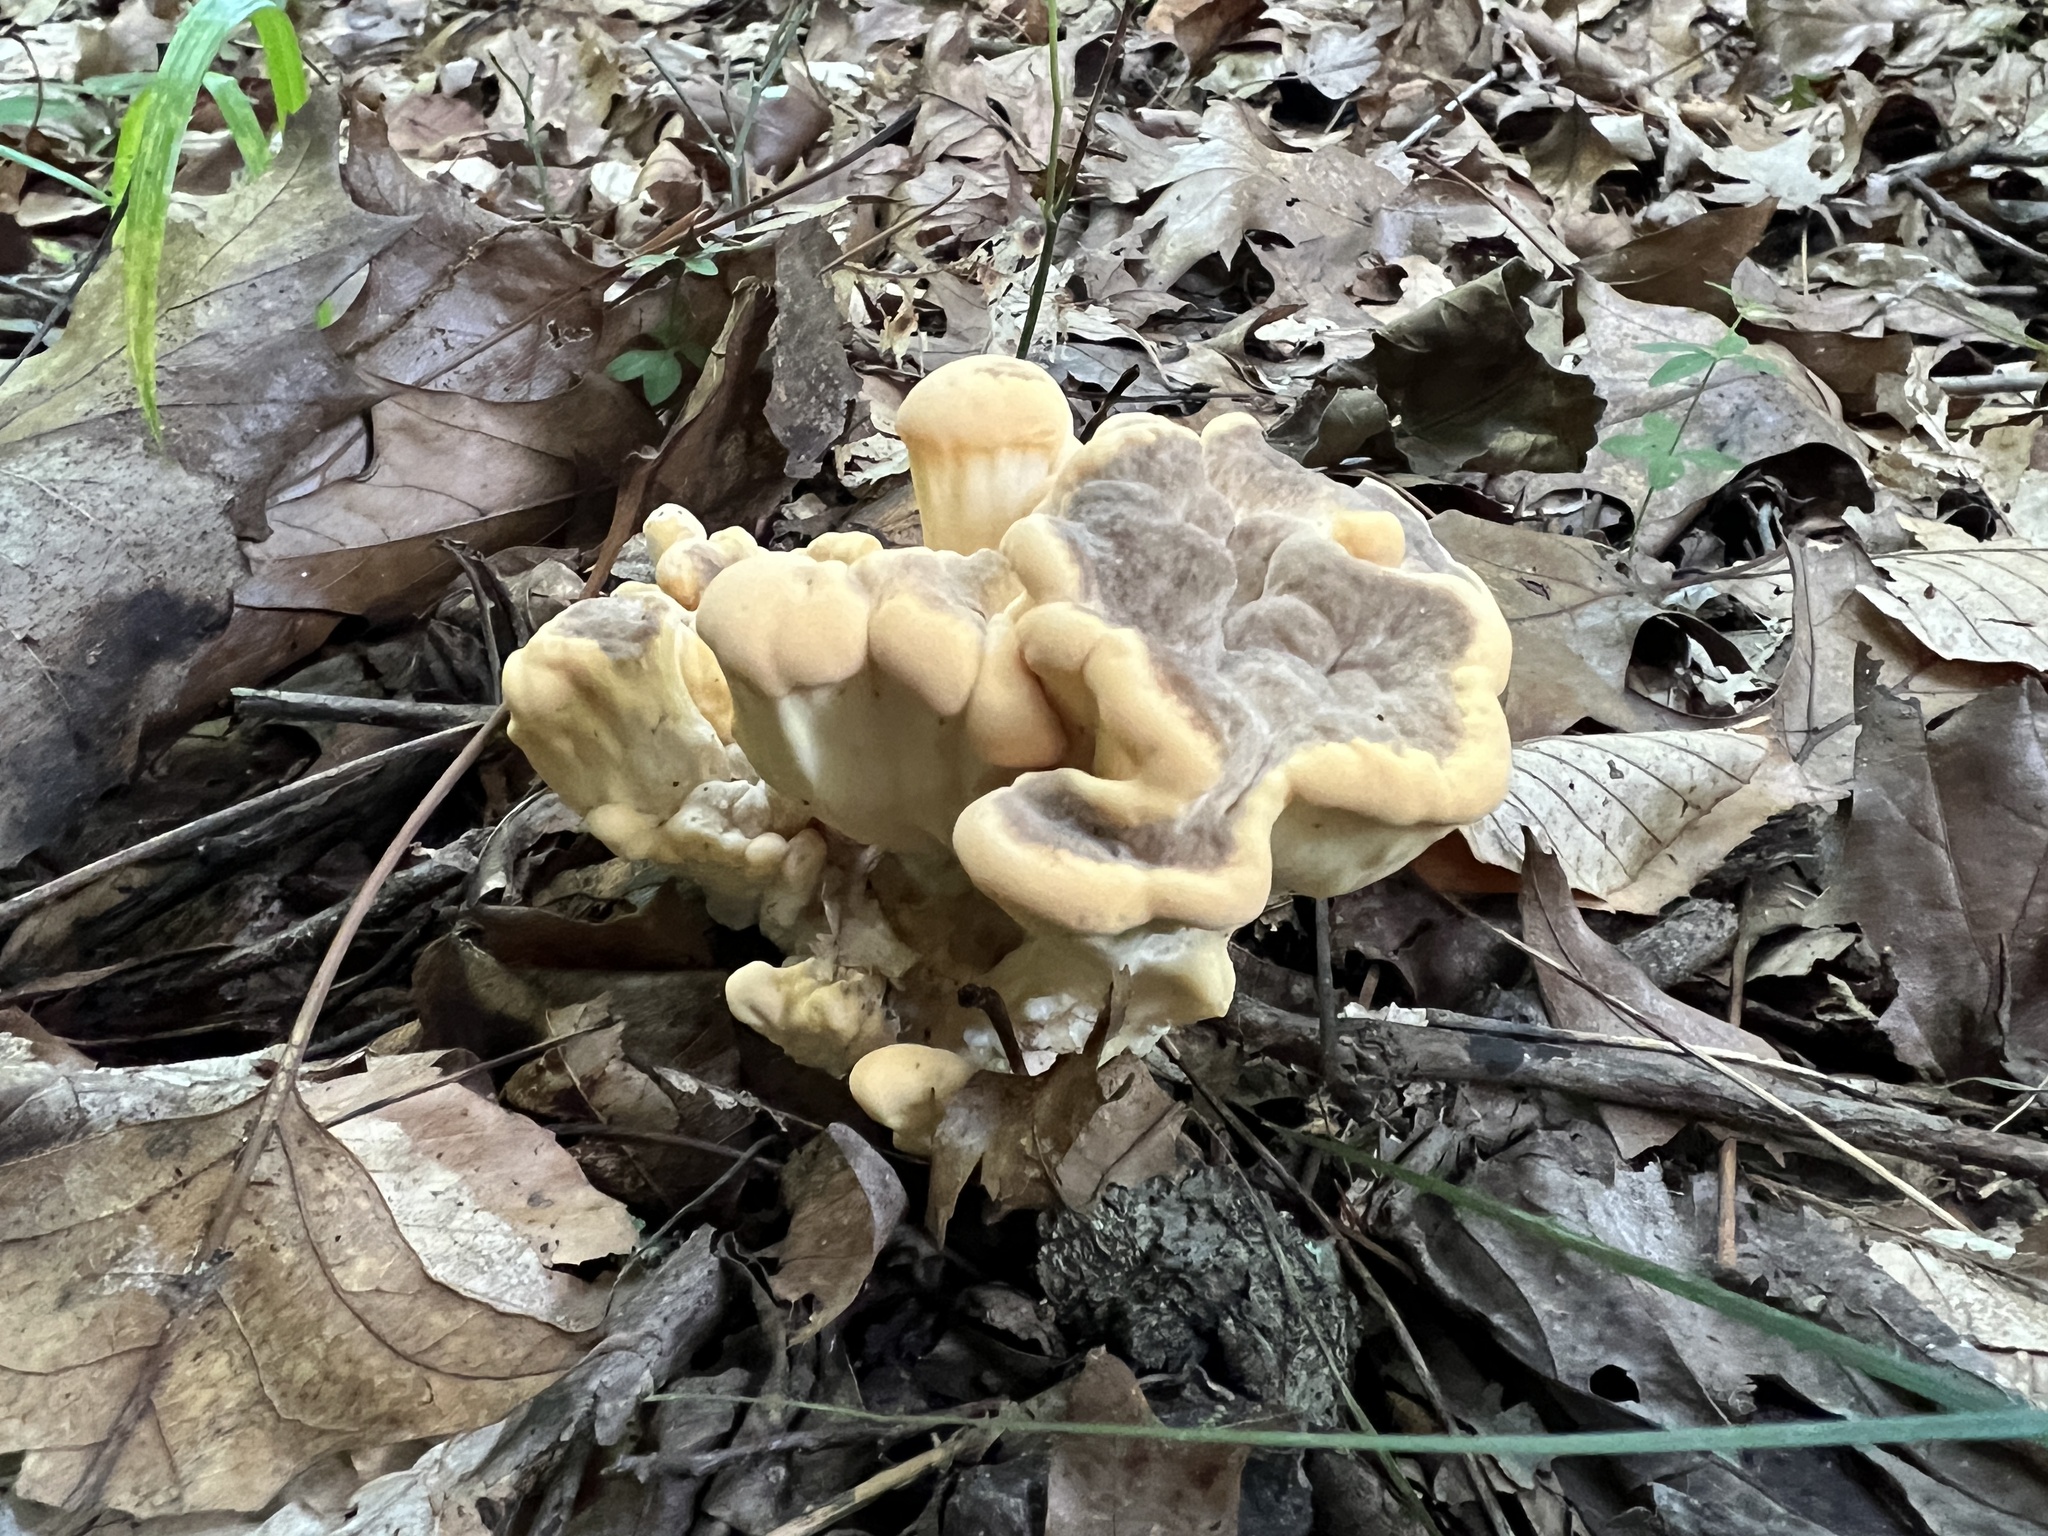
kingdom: Fungi
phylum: Basidiomycota
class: Agaricomycetes
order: Polyporales
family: Meripilaceae
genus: Meripilus
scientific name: Meripilus sumstinei
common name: Black-staining polypore
